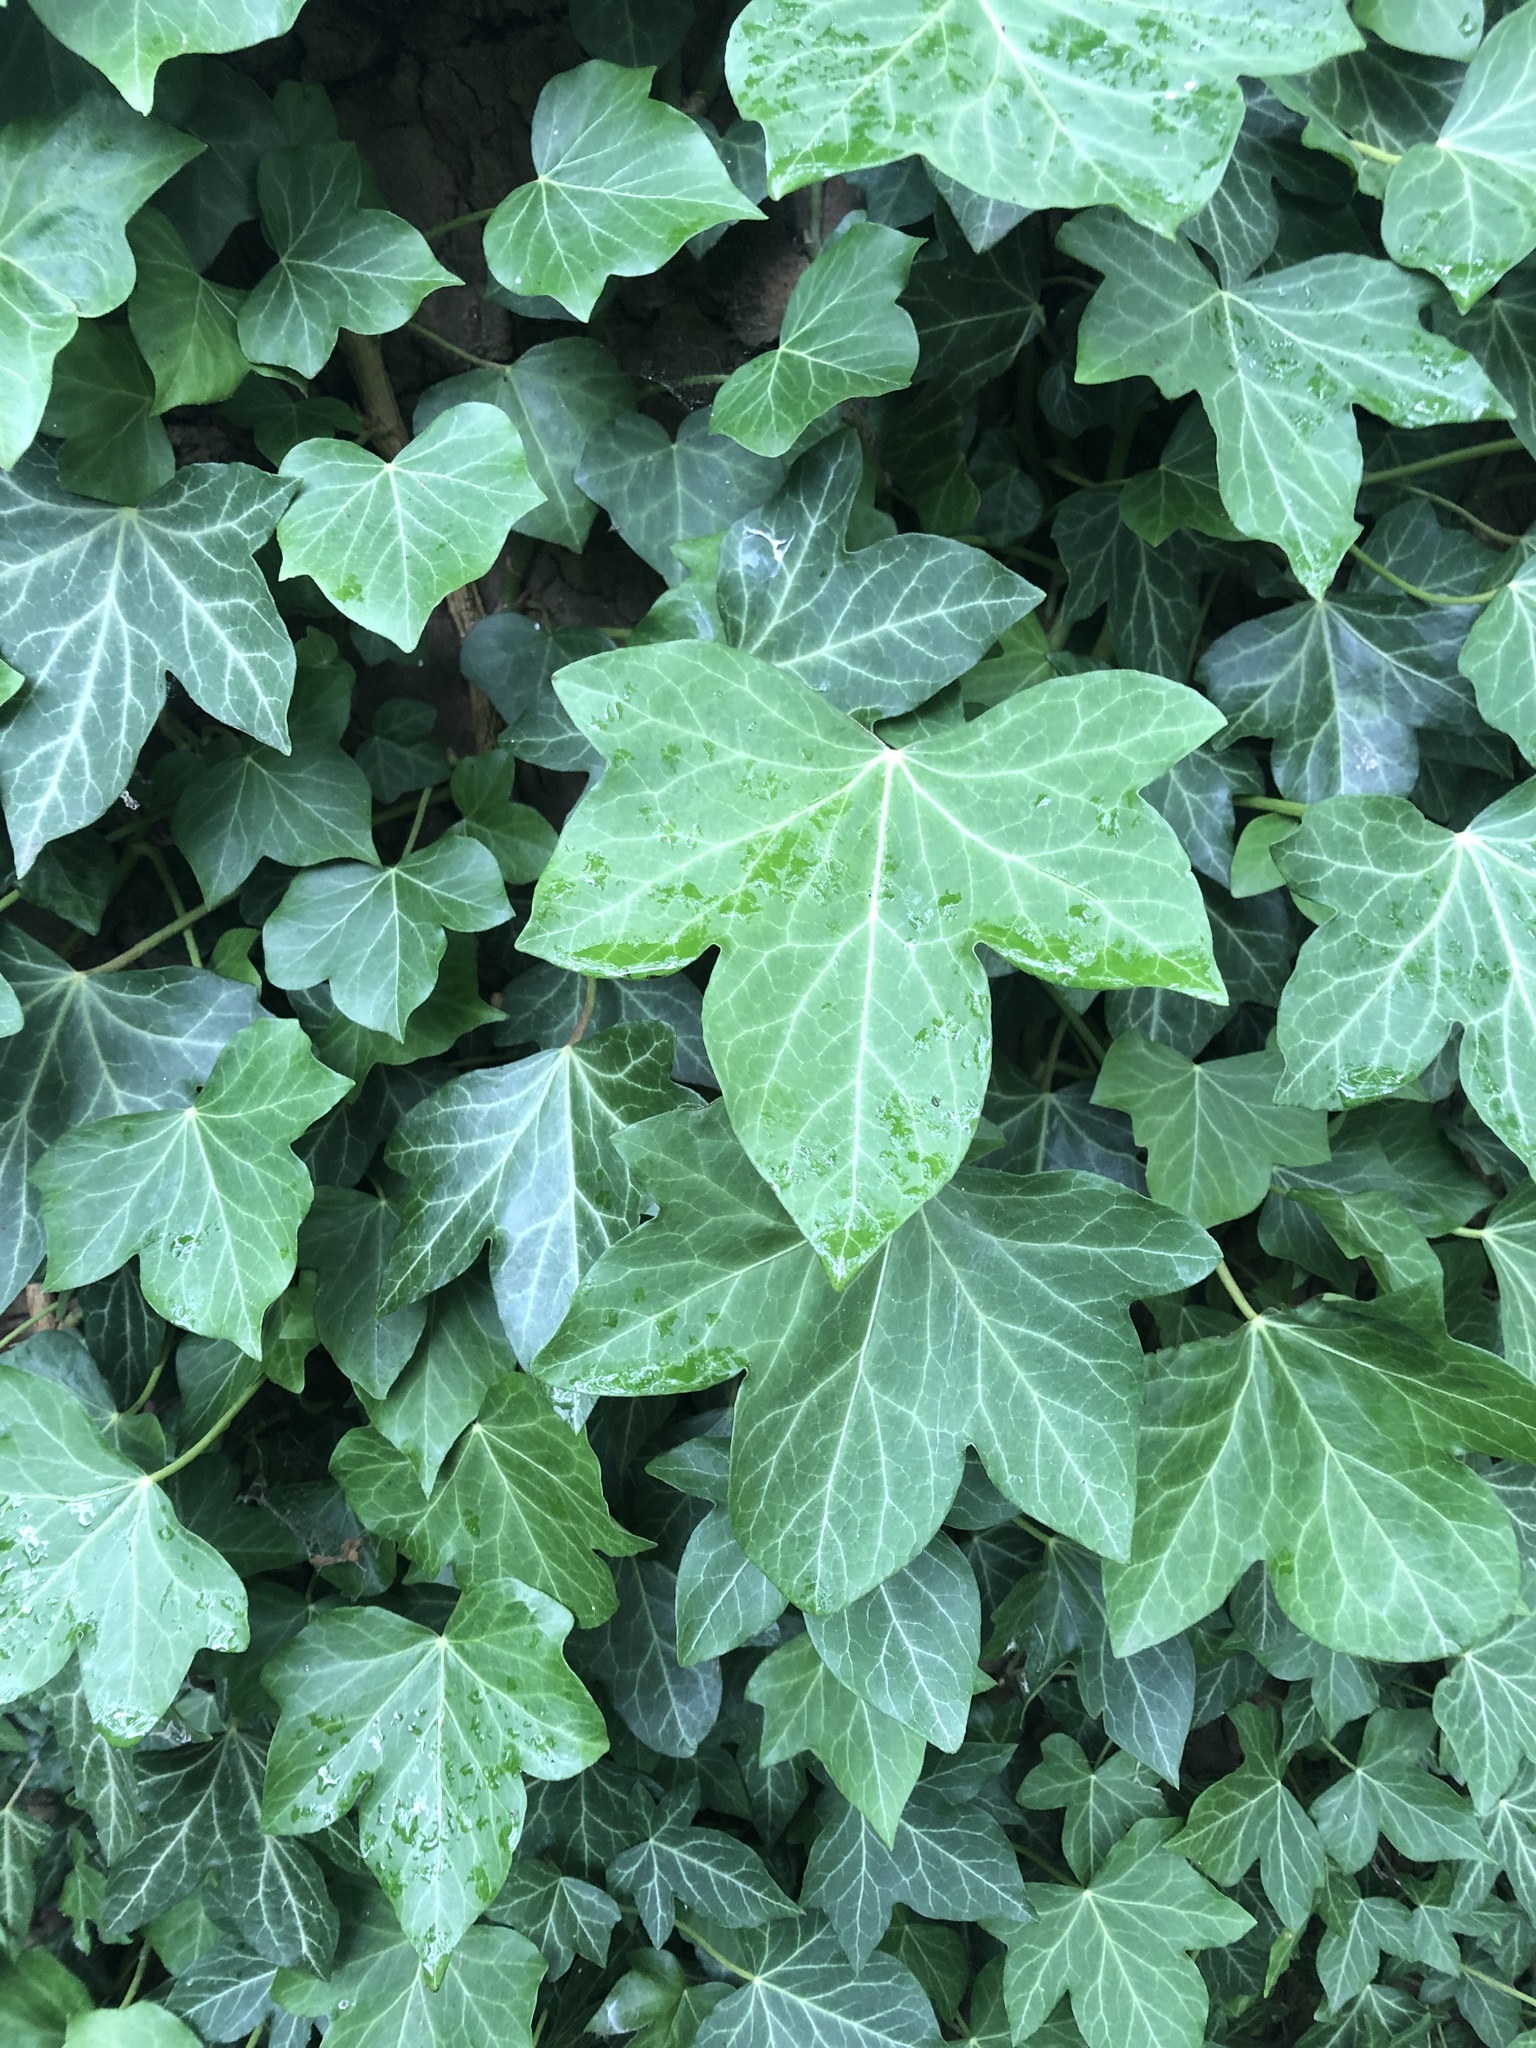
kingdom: Plantae
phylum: Tracheophyta
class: Magnoliopsida
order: Apiales
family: Araliaceae
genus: Hedera
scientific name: Hedera helix
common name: Ivy
